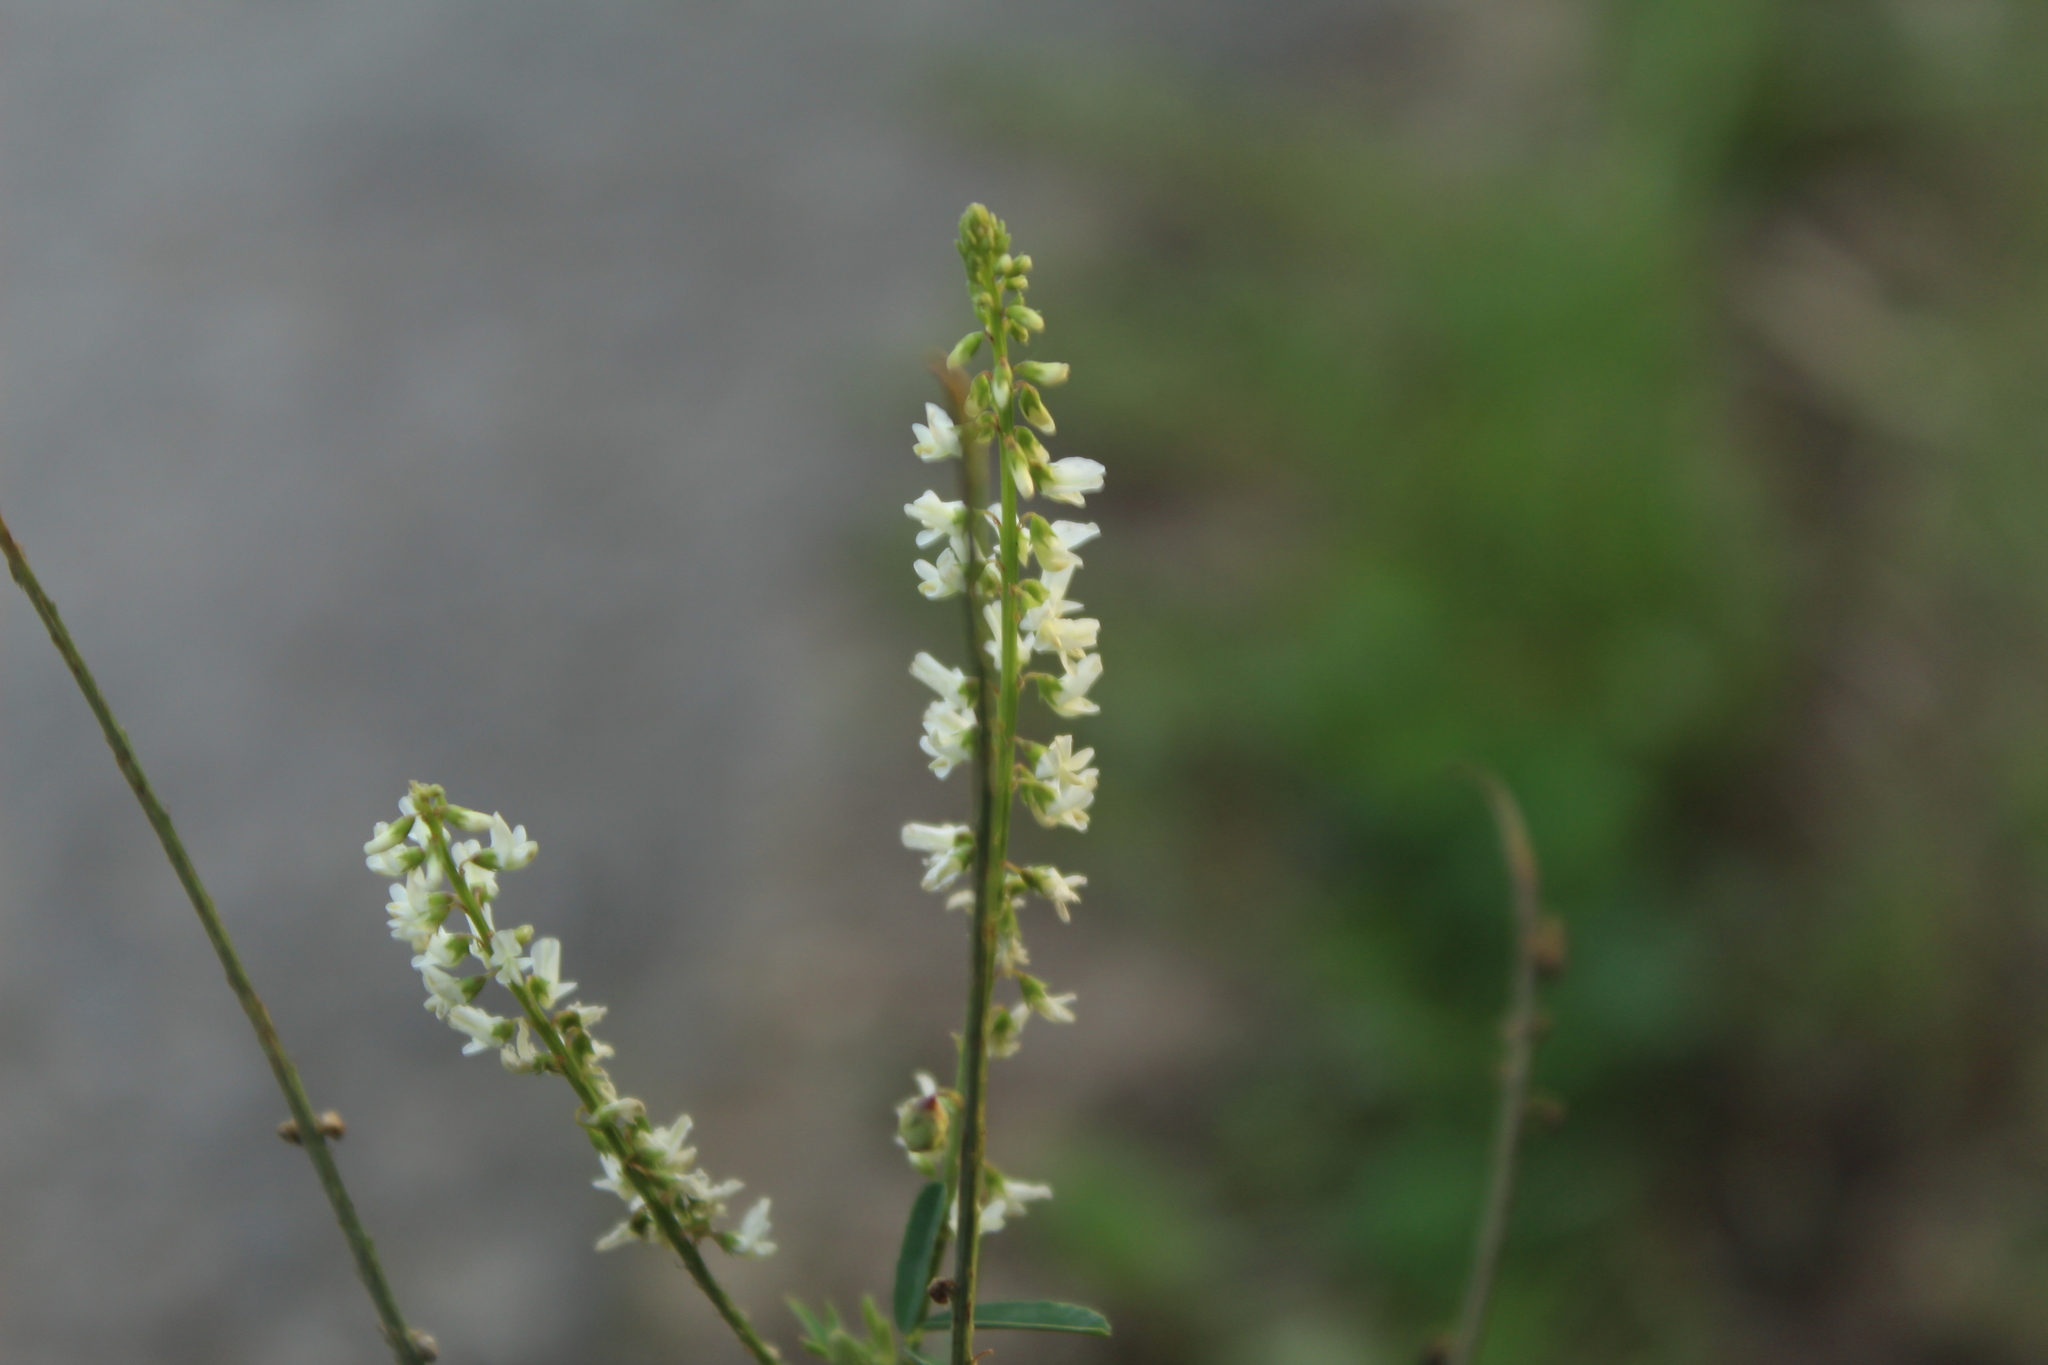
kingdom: Plantae
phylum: Tracheophyta
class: Magnoliopsida
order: Fabales
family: Fabaceae
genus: Melilotus
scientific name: Melilotus albus
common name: White melilot
